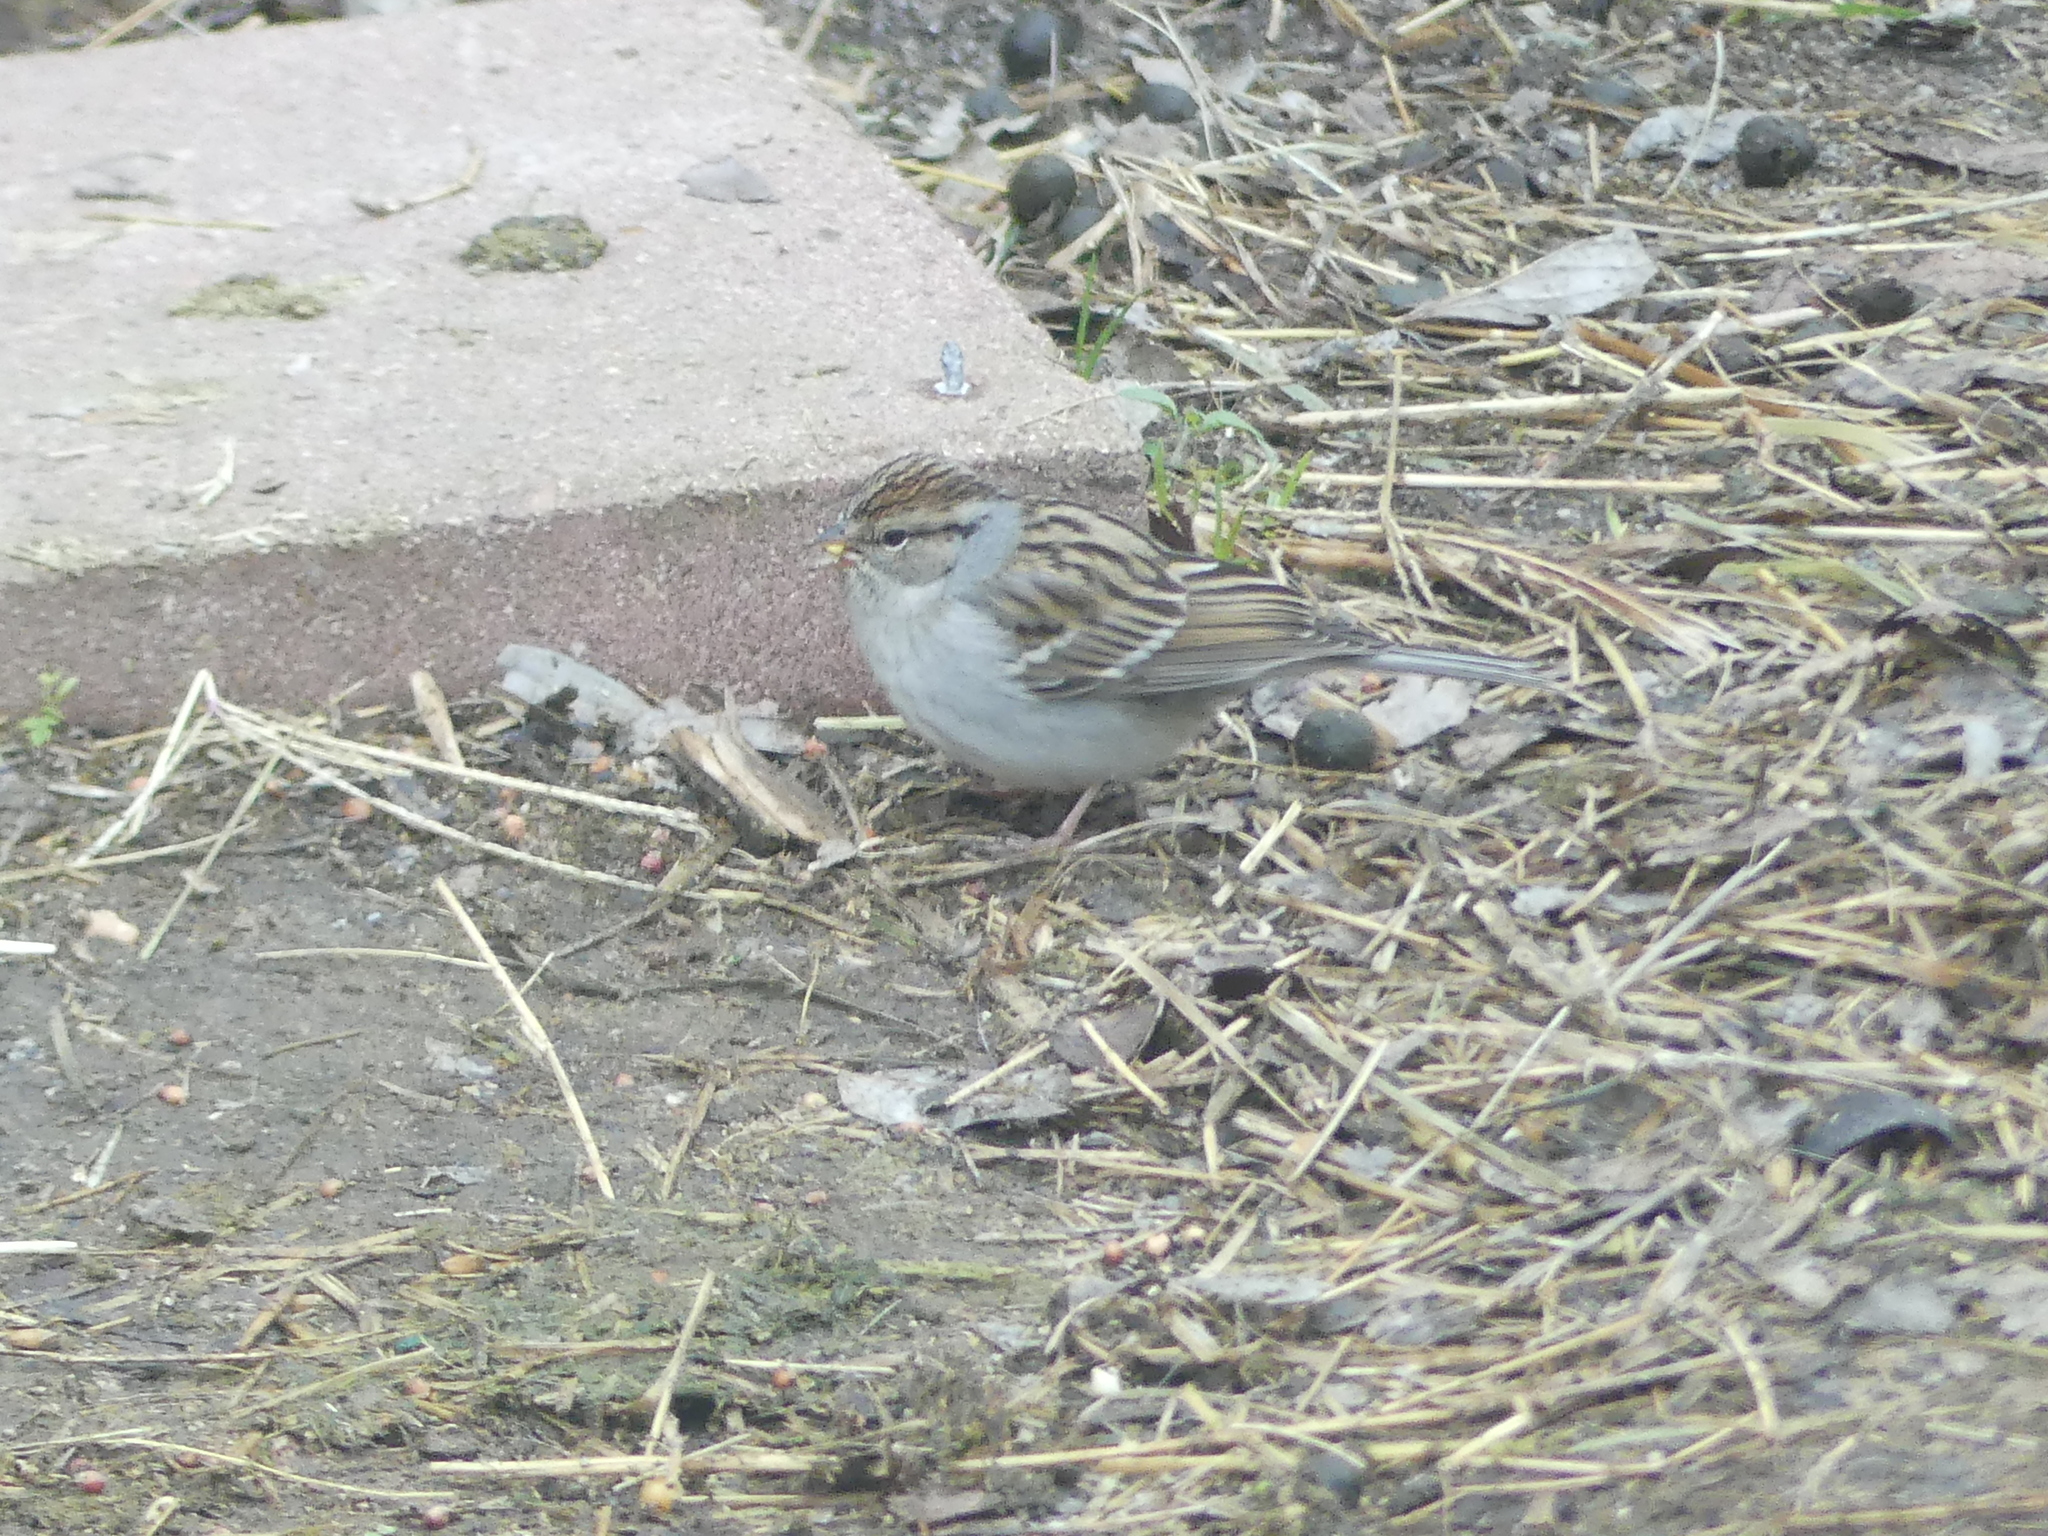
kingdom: Animalia
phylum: Chordata
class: Aves
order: Passeriformes
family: Passerellidae
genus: Spizella
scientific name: Spizella passerina
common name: Chipping sparrow
